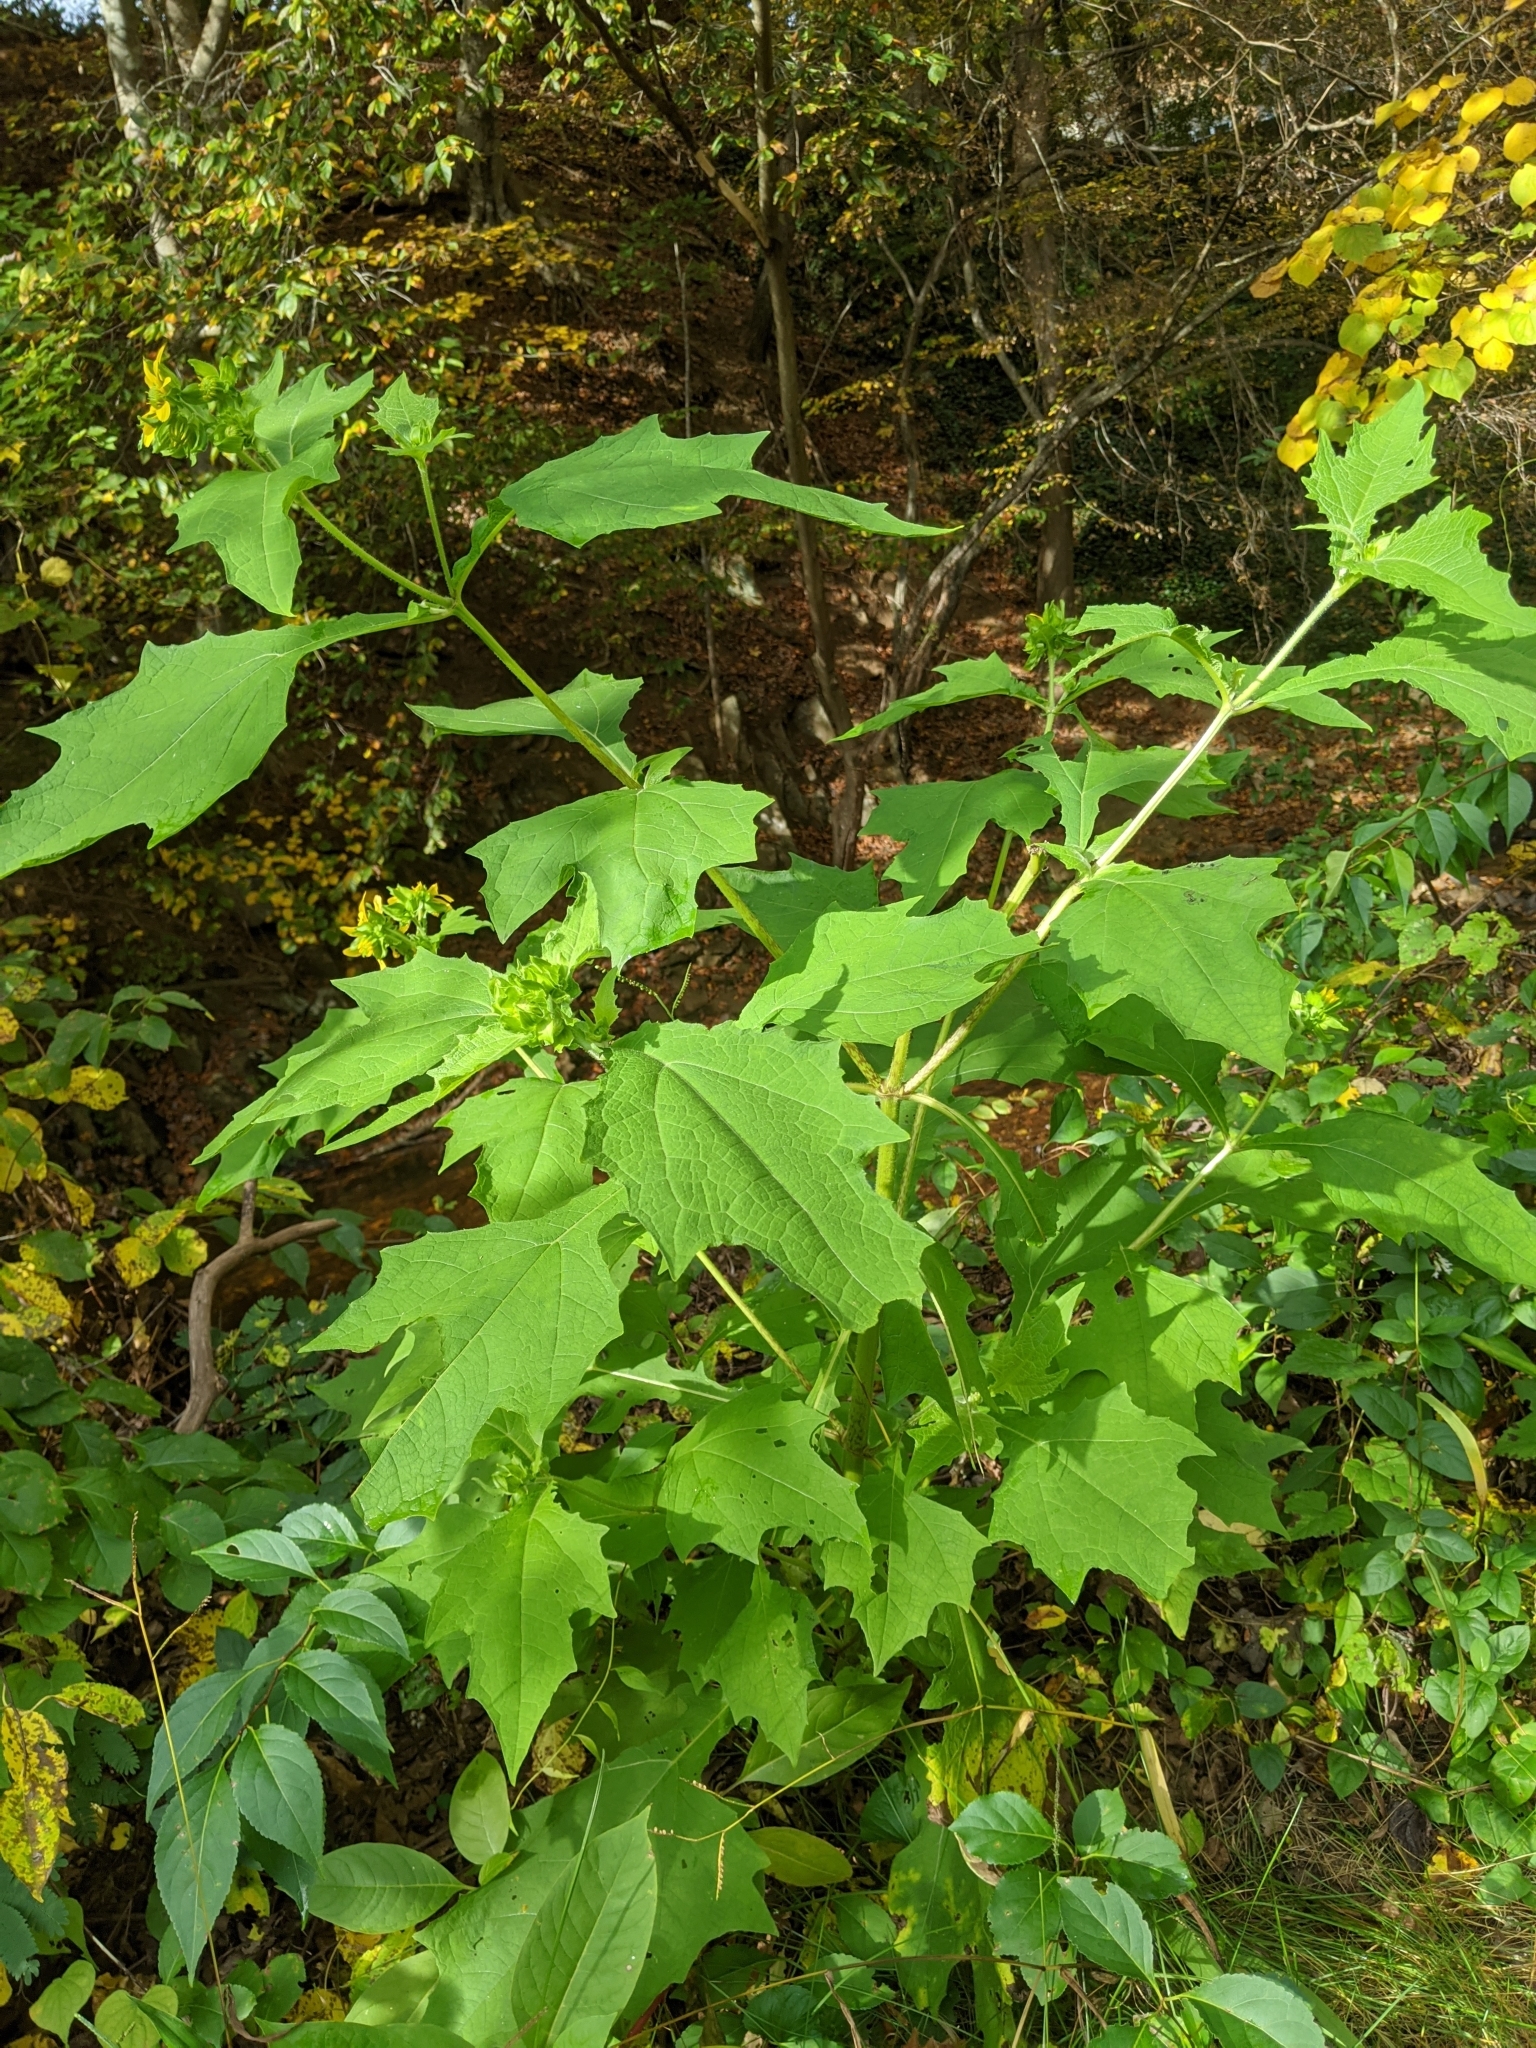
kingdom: Plantae
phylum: Tracheophyta
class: Magnoliopsida
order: Asterales
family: Asteraceae
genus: Smallanthus
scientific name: Smallanthus uvedalia
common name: Bear's-foot
